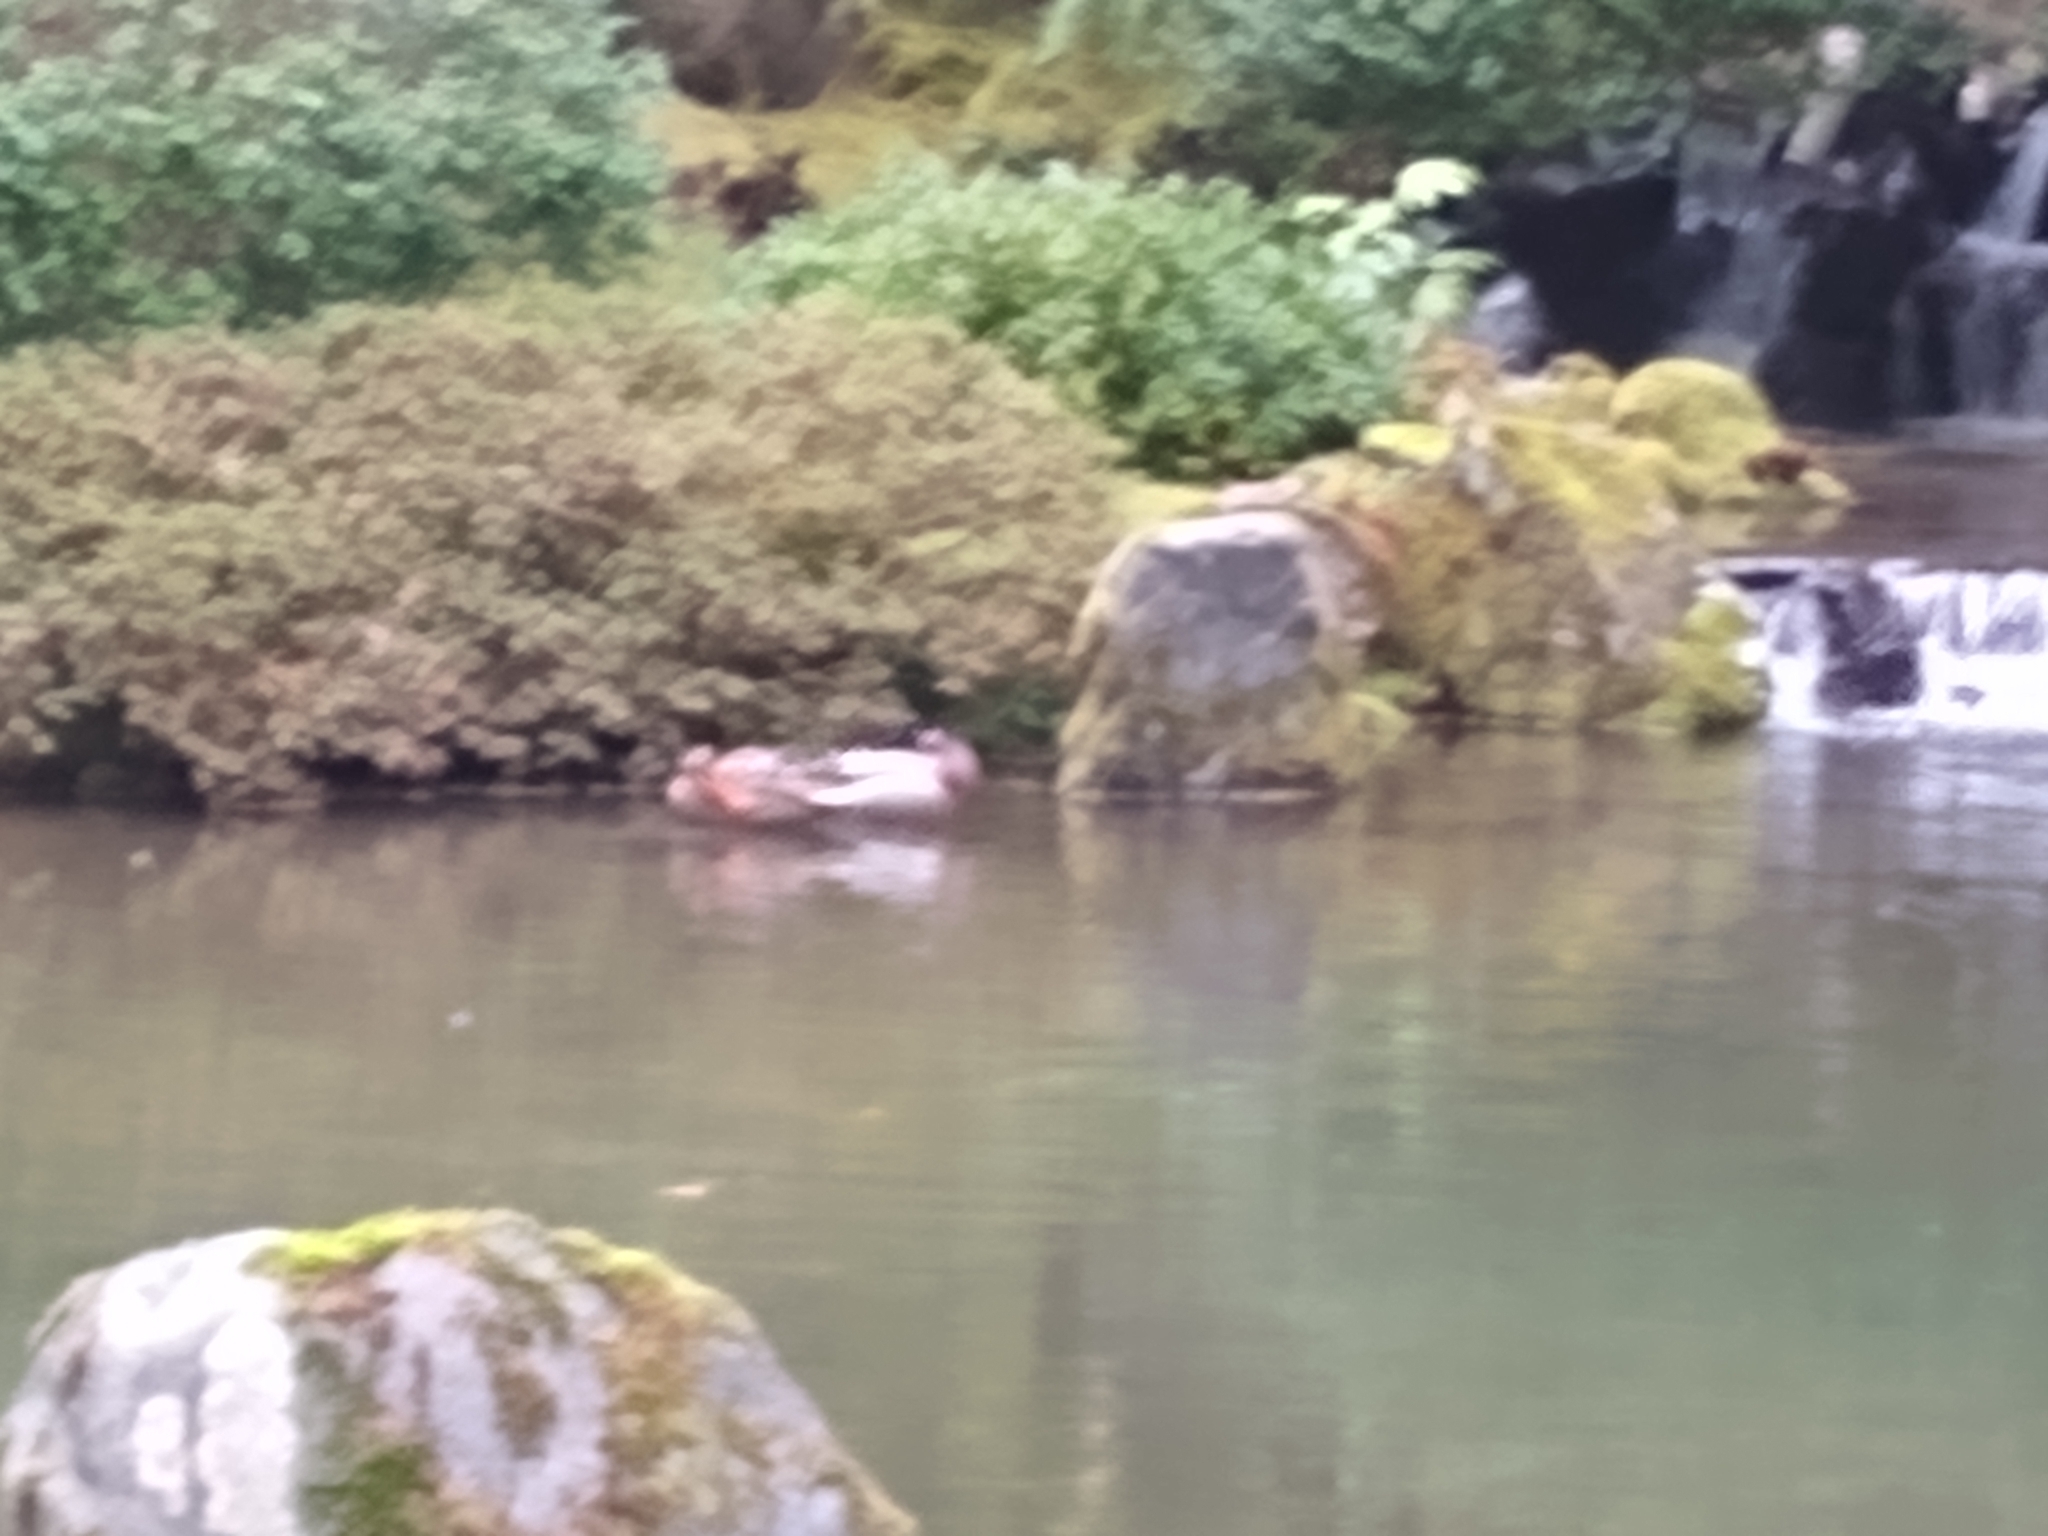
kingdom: Animalia
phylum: Chordata
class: Aves
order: Anseriformes
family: Anatidae
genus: Anas
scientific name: Anas platyrhynchos
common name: Mallard
